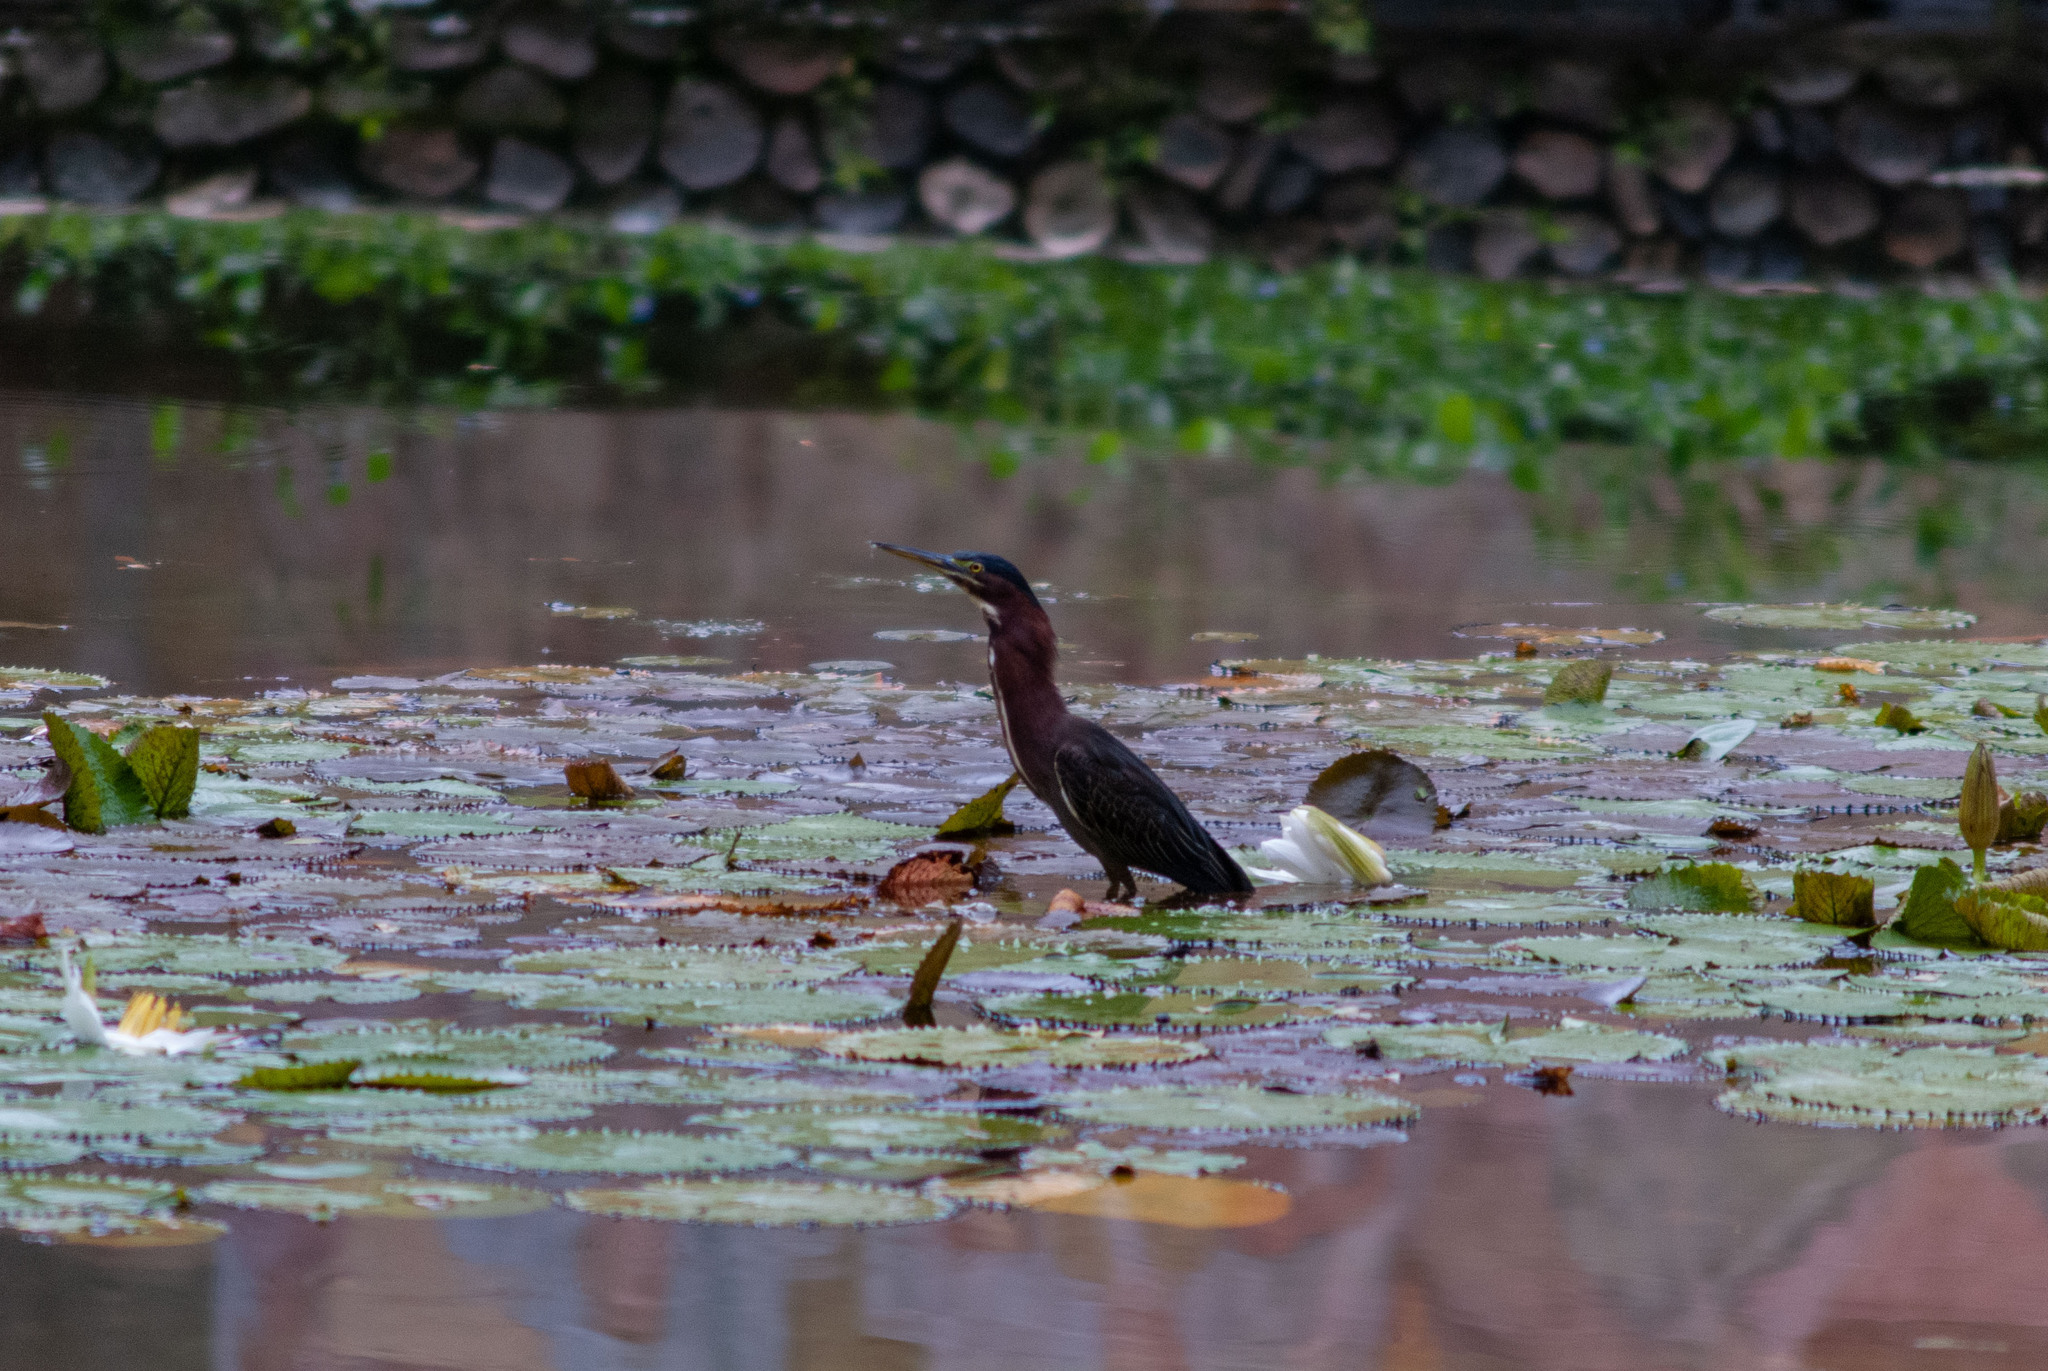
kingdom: Animalia
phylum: Chordata
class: Aves
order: Pelecaniformes
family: Ardeidae
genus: Butorides
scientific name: Butorides virescens
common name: Green heron
